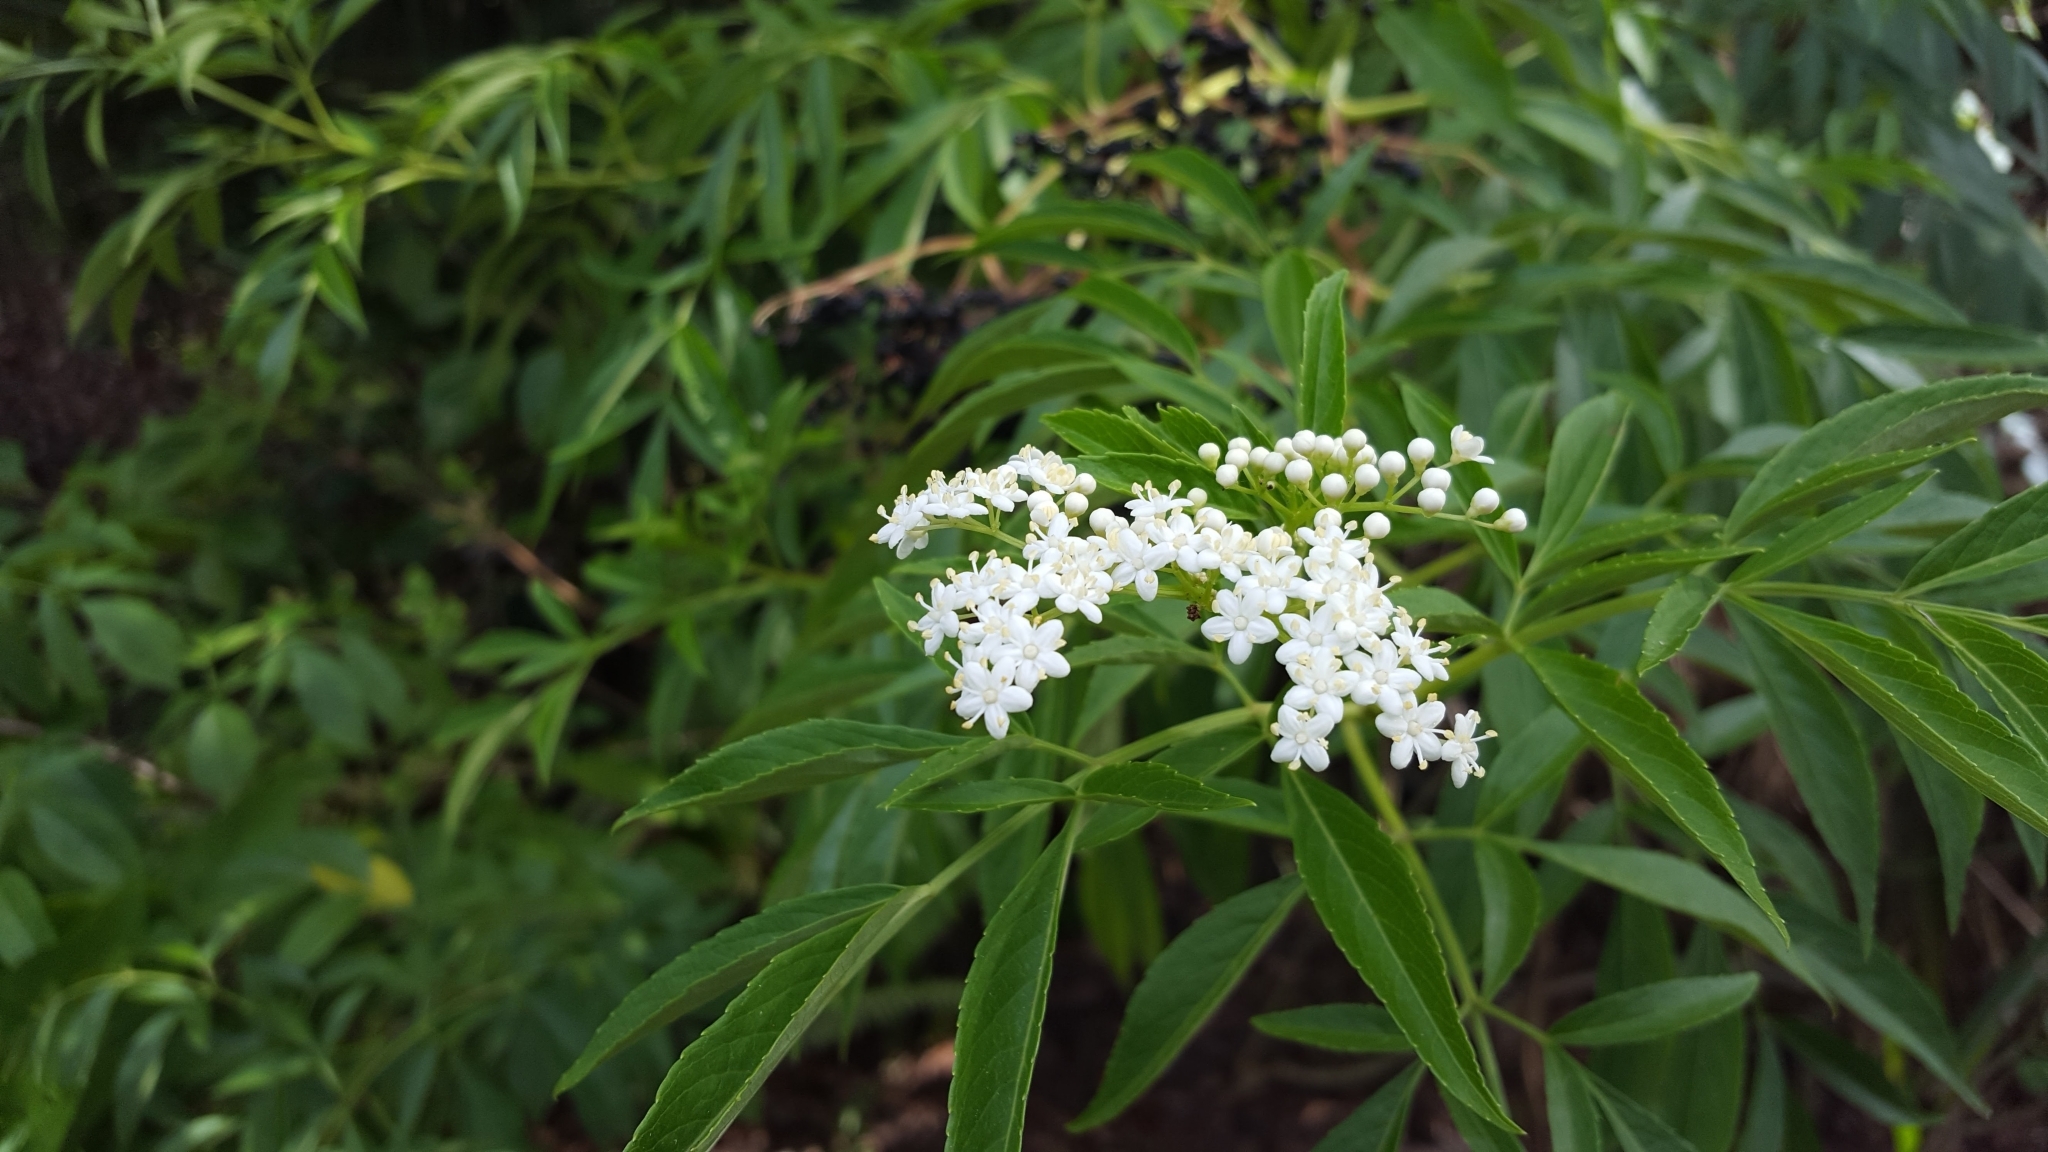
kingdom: Plantae
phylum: Tracheophyta
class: Magnoliopsida
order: Dipsacales
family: Viburnaceae
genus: Sambucus
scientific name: Sambucus canadensis
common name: American elder
